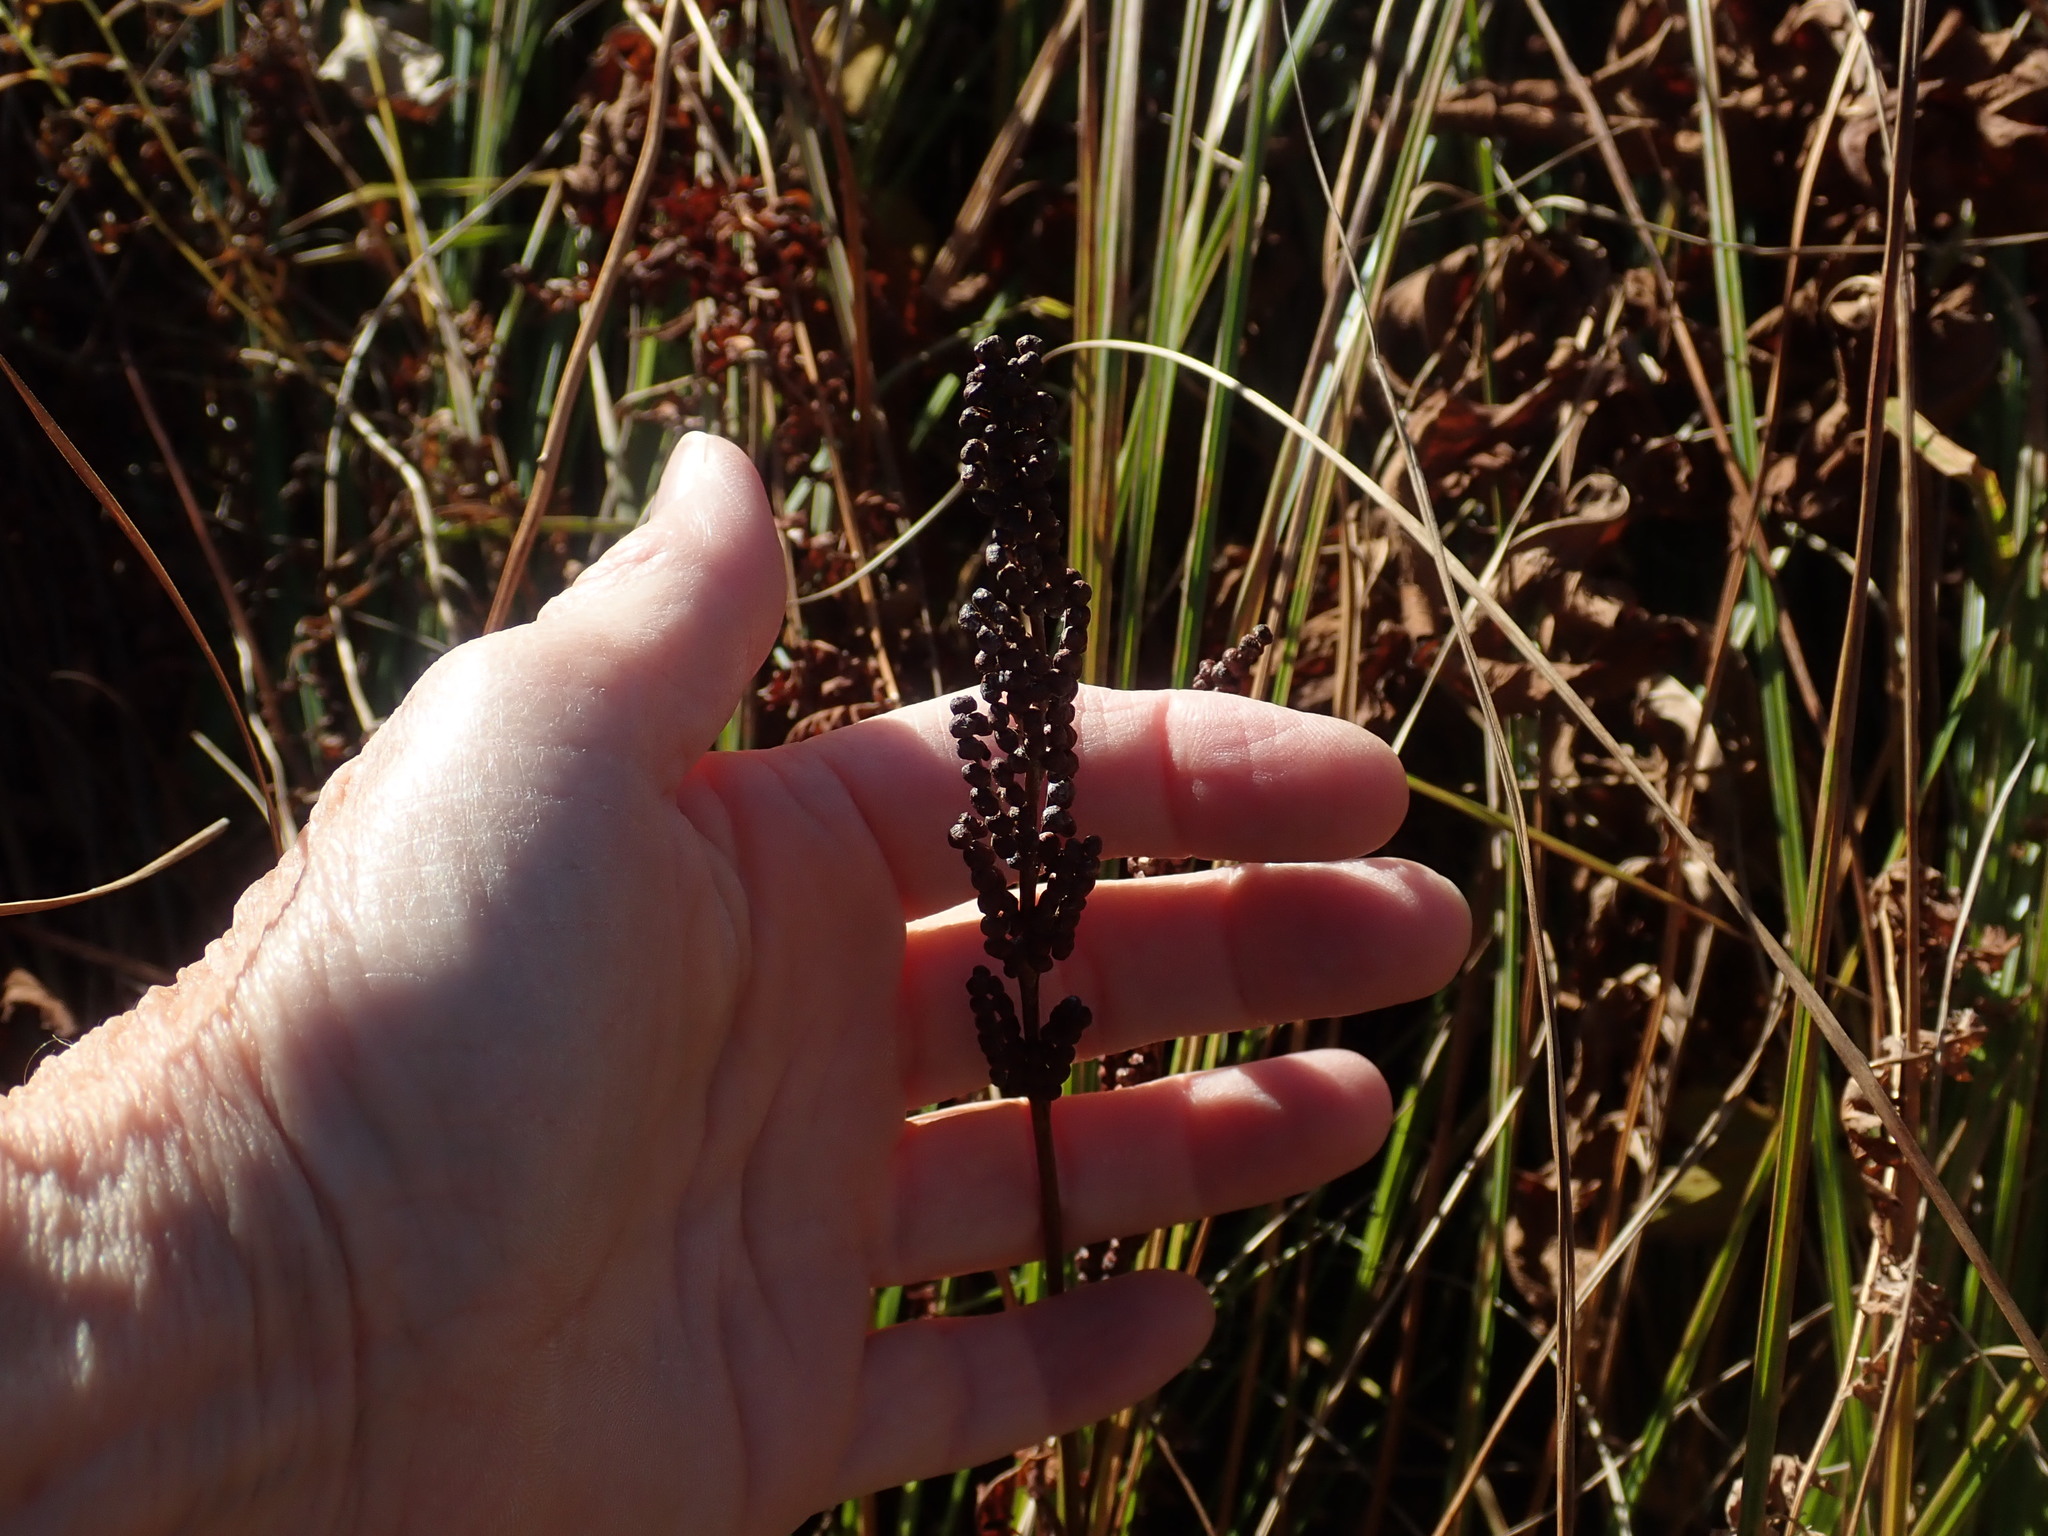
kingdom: Plantae
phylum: Tracheophyta
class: Polypodiopsida
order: Polypodiales
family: Onocleaceae
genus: Onoclea
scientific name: Onoclea sensibilis
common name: Sensitive fern
